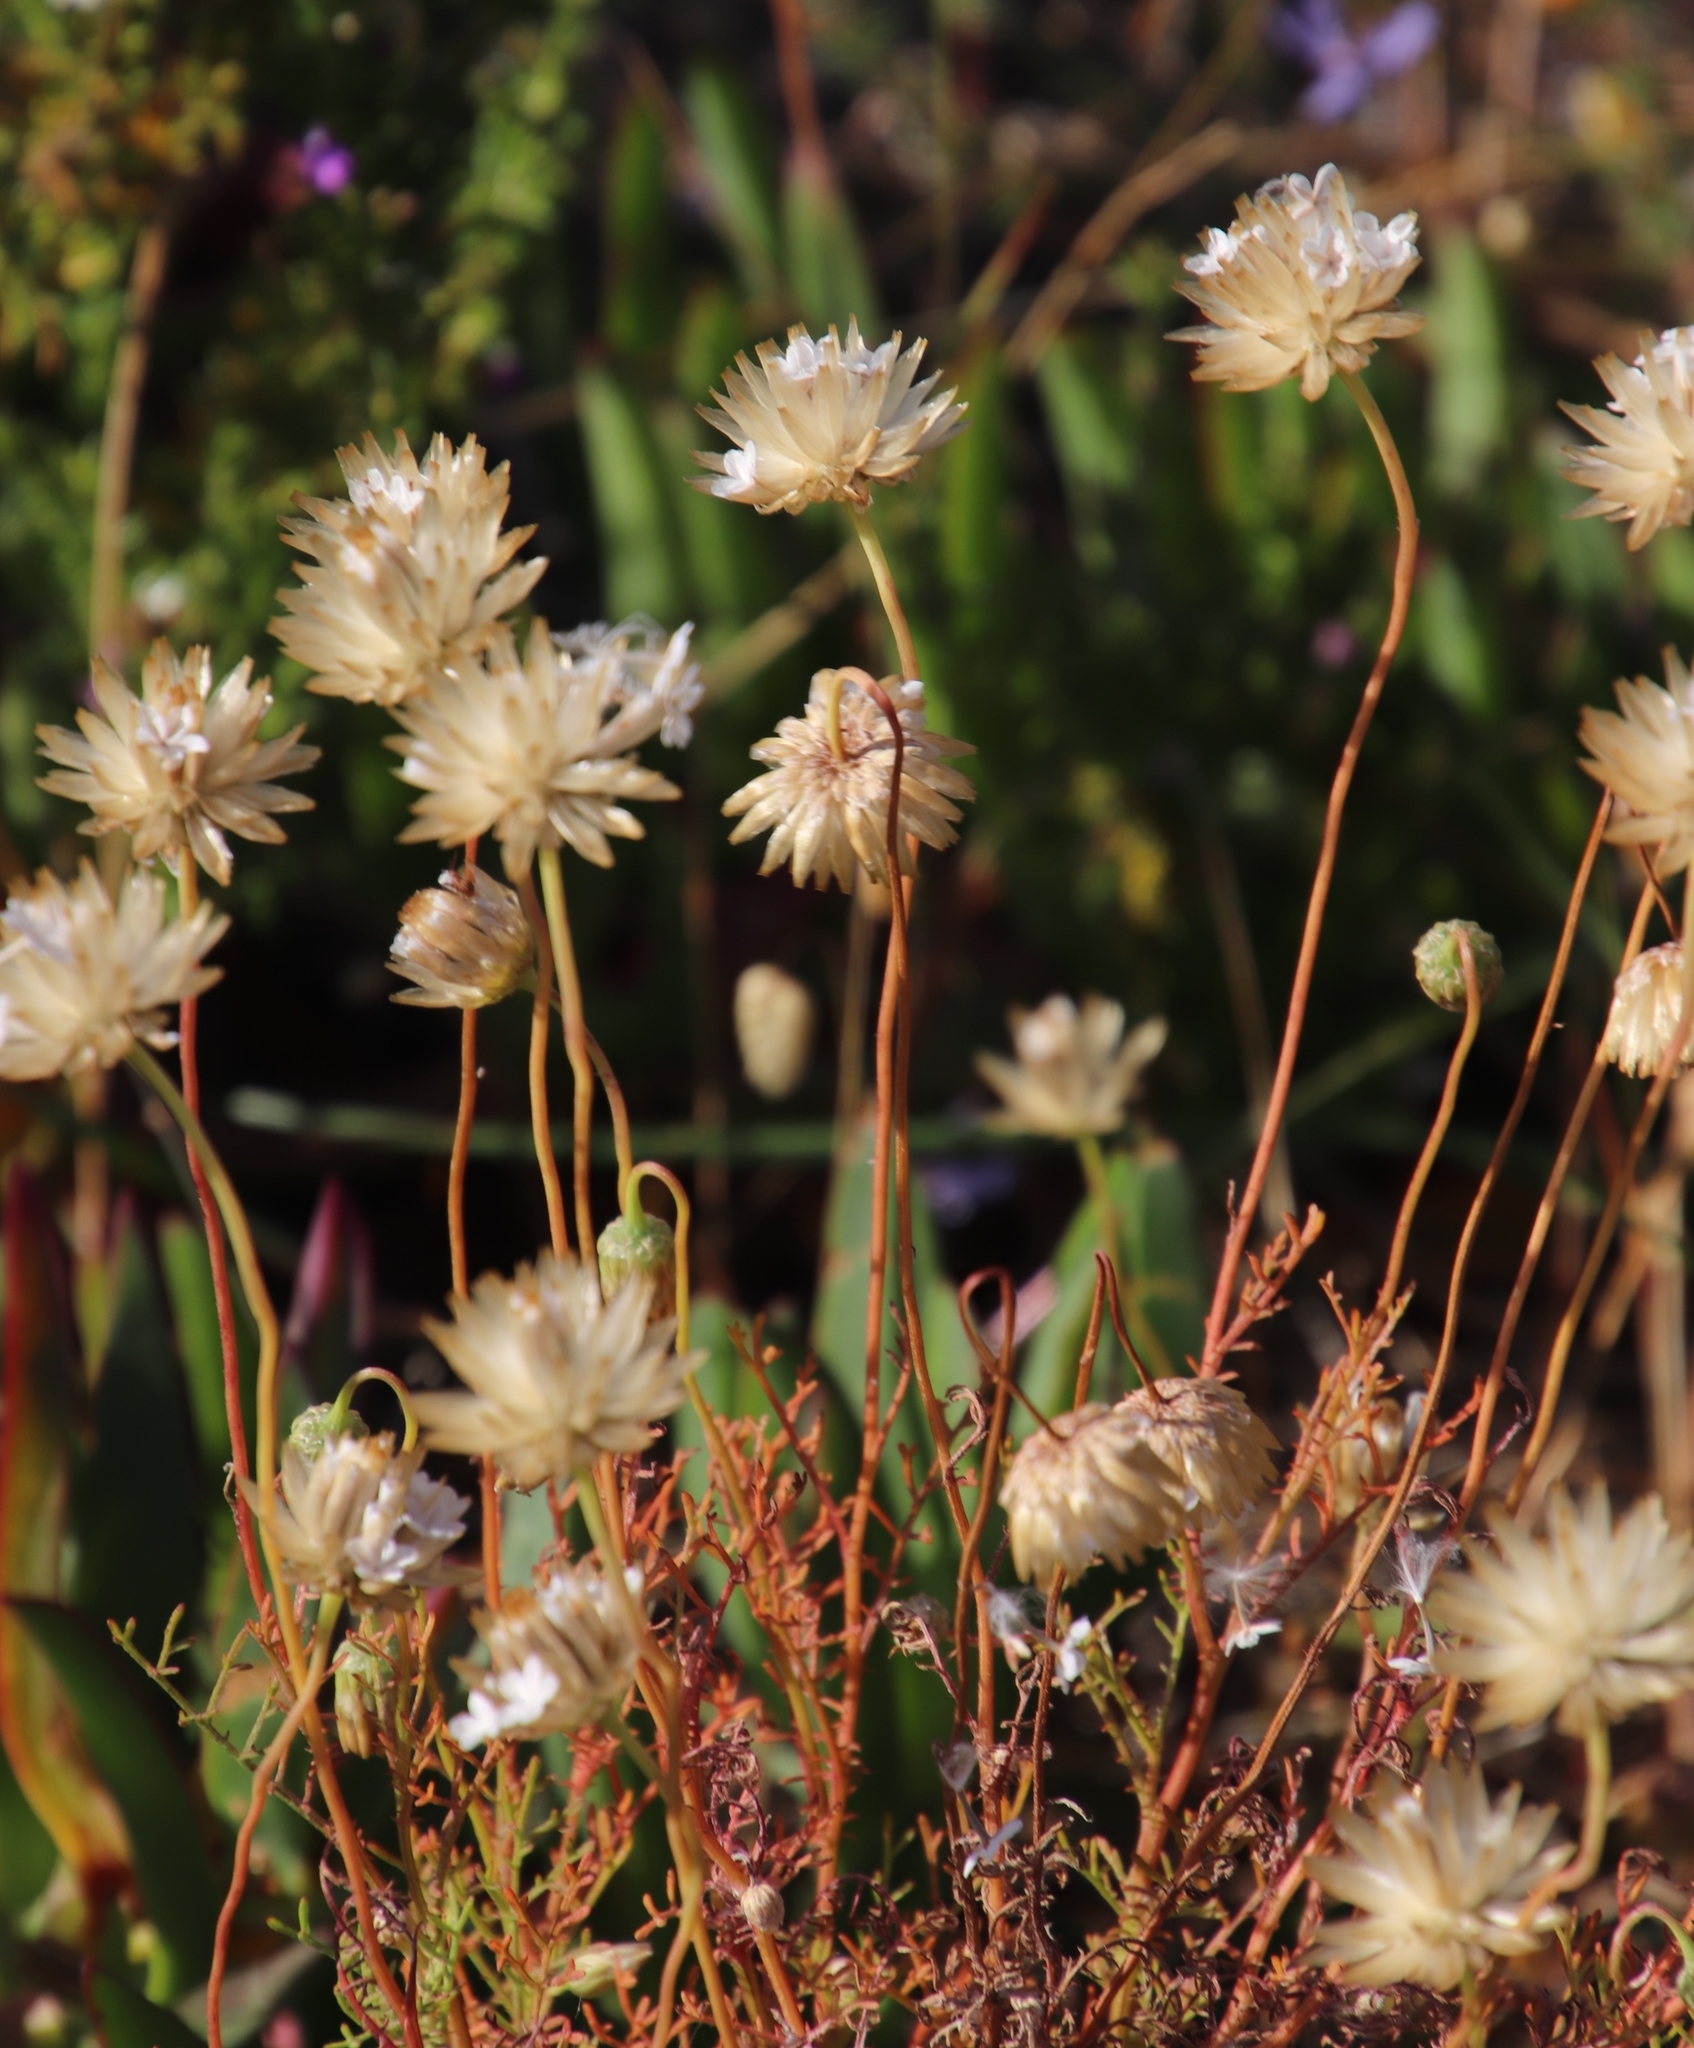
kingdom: Plantae
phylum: Tracheophyta
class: Magnoliopsida
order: Asterales
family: Asteraceae
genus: Ursinia
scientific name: Ursinia anthemoides
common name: Ursinia
